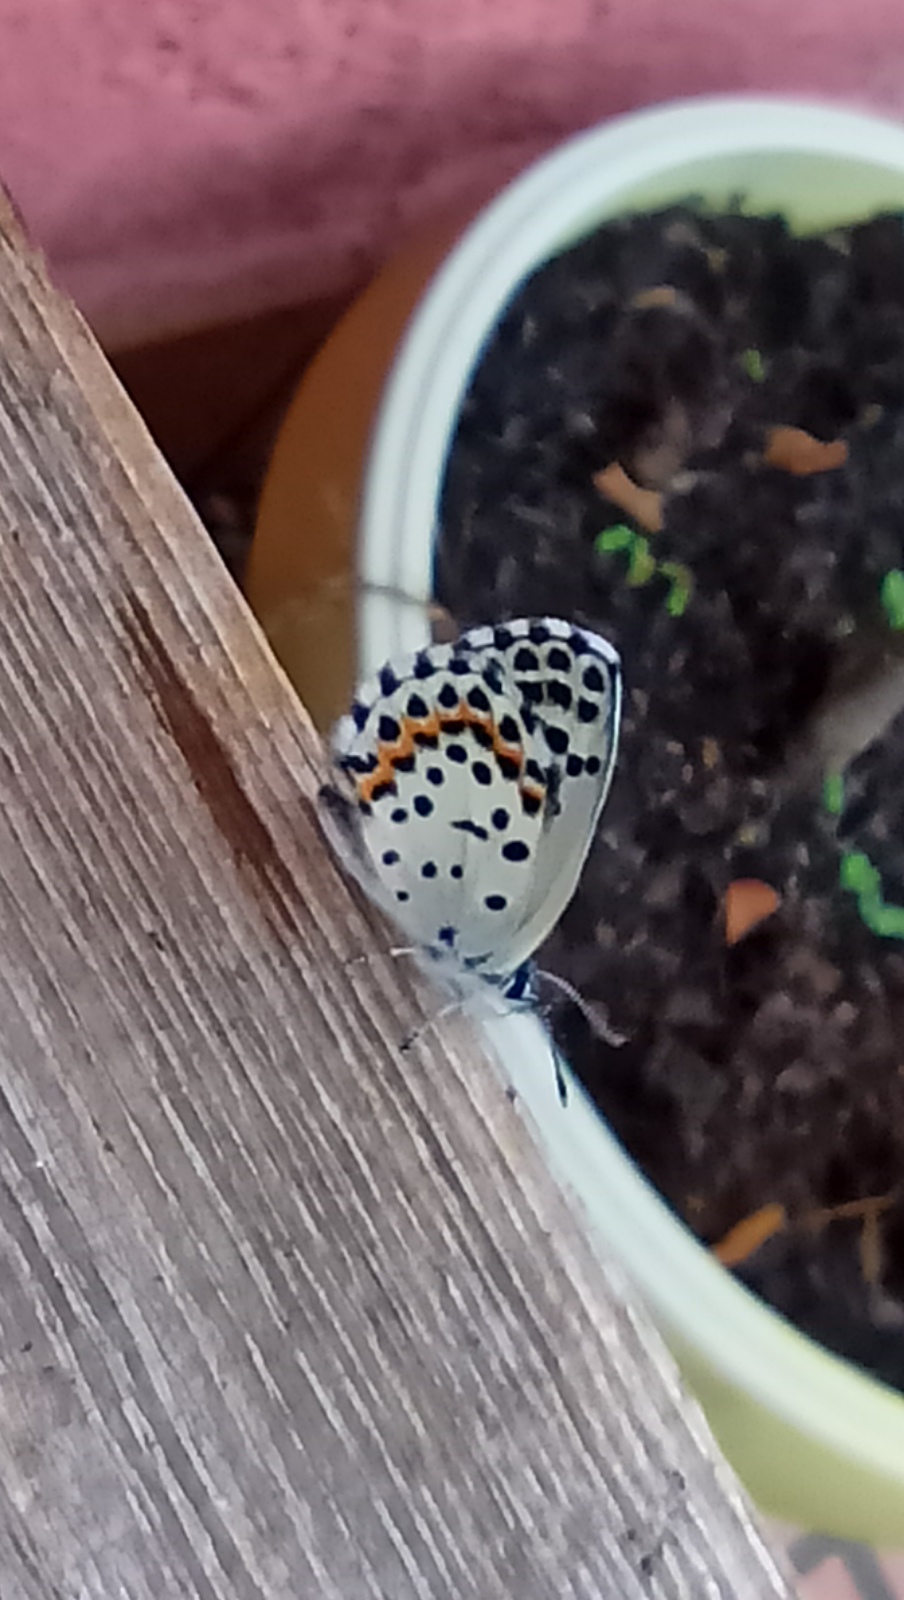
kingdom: Animalia
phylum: Arthropoda
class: Insecta
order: Lepidoptera
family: Lycaenidae
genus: Scolitantides
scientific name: Scolitantides orion
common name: Chequered blue
